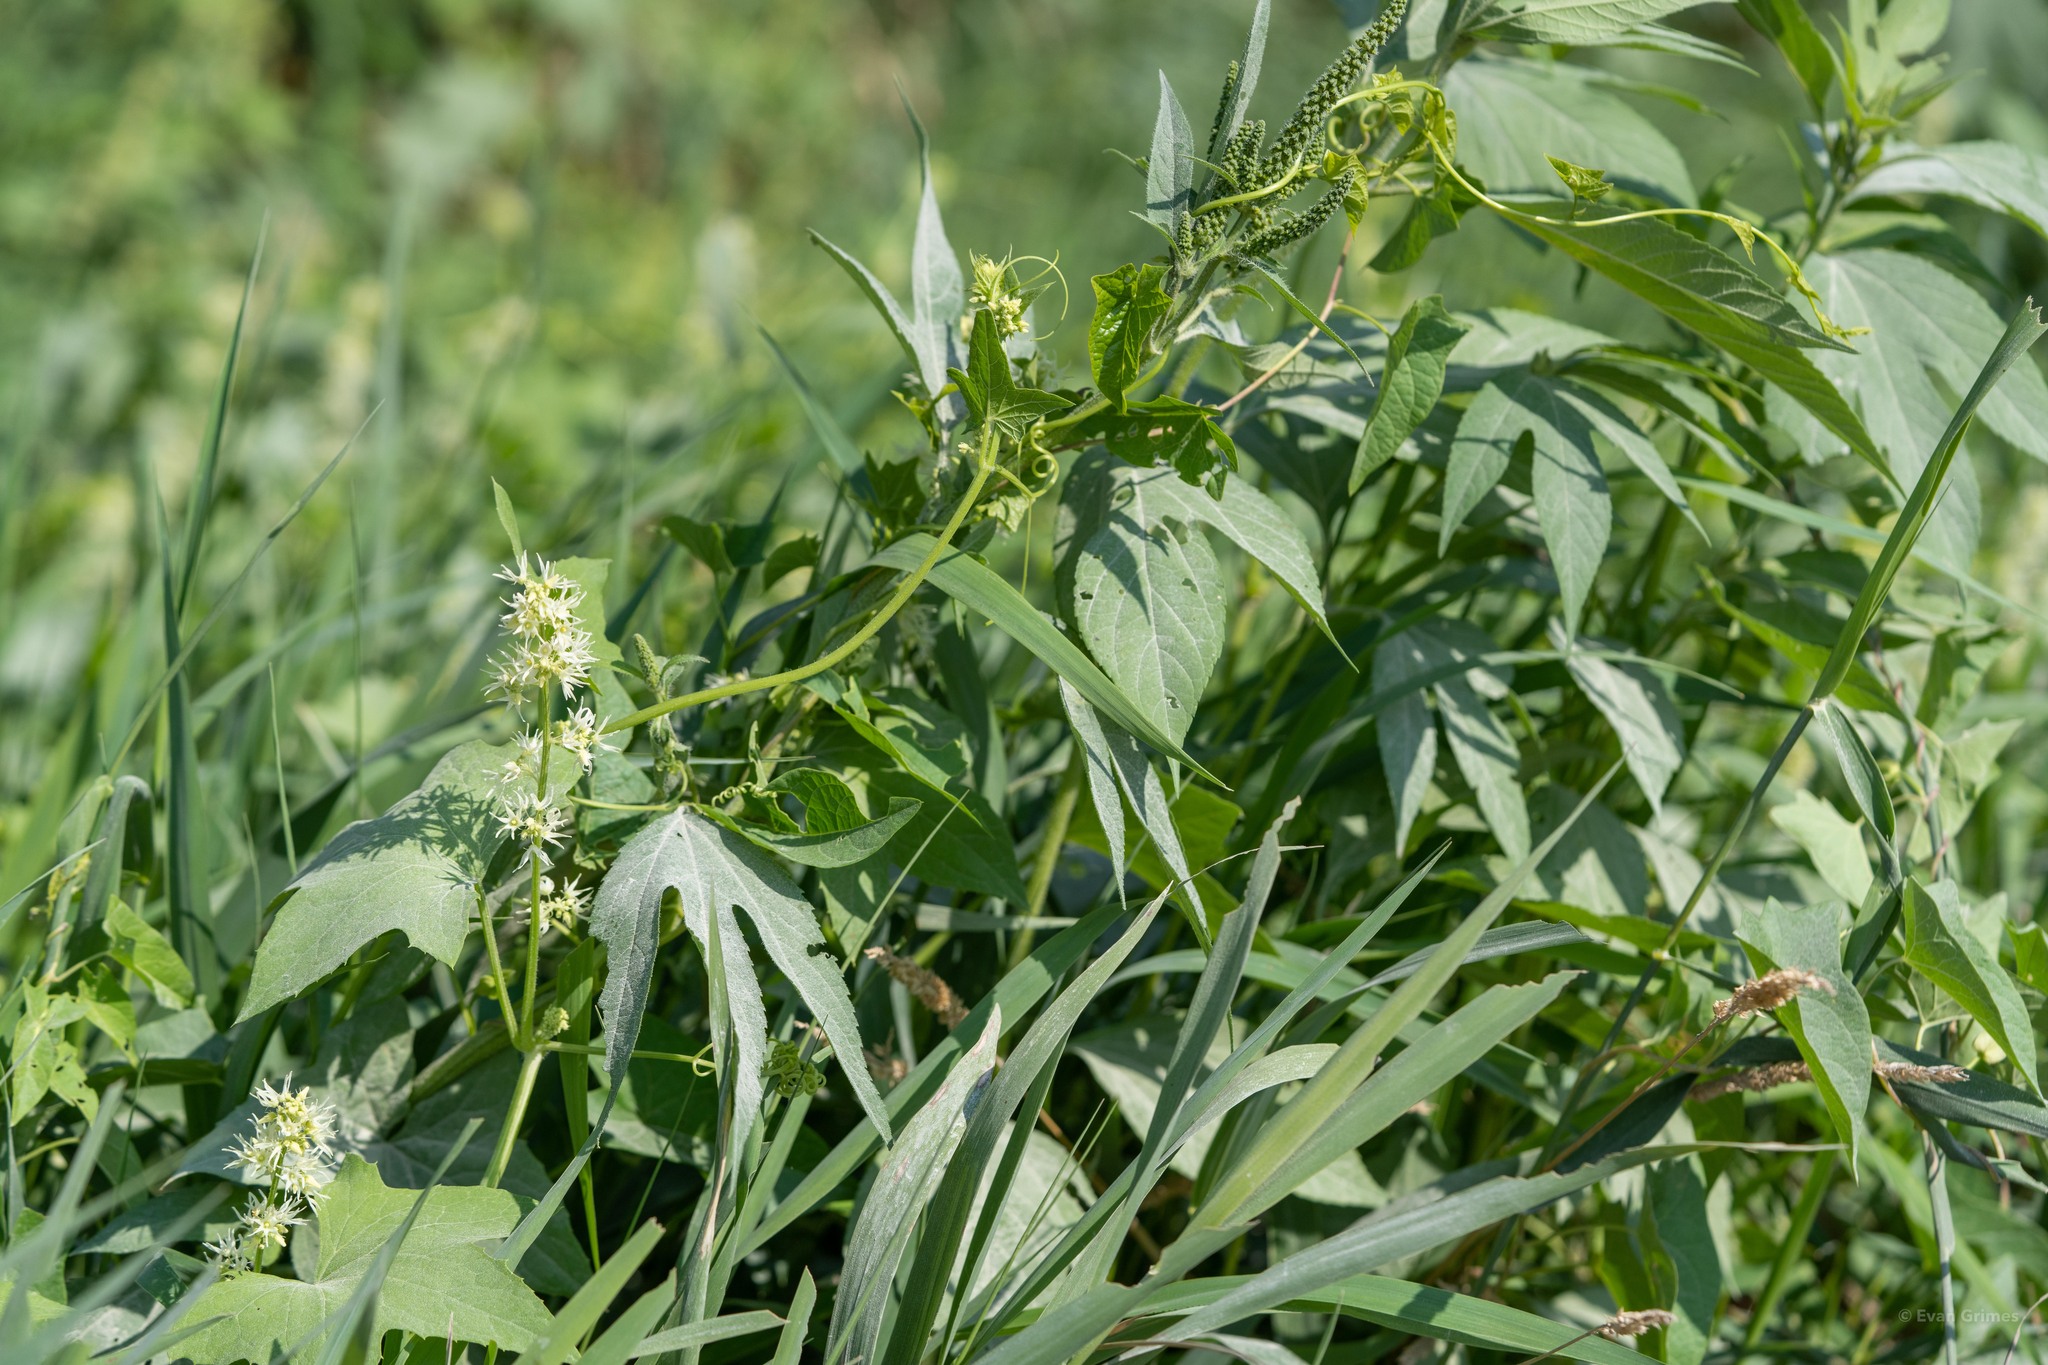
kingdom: Plantae
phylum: Tracheophyta
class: Magnoliopsida
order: Cucurbitales
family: Cucurbitaceae
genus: Echinocystis
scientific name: Echinocystis lobata
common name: Wild cucumber
